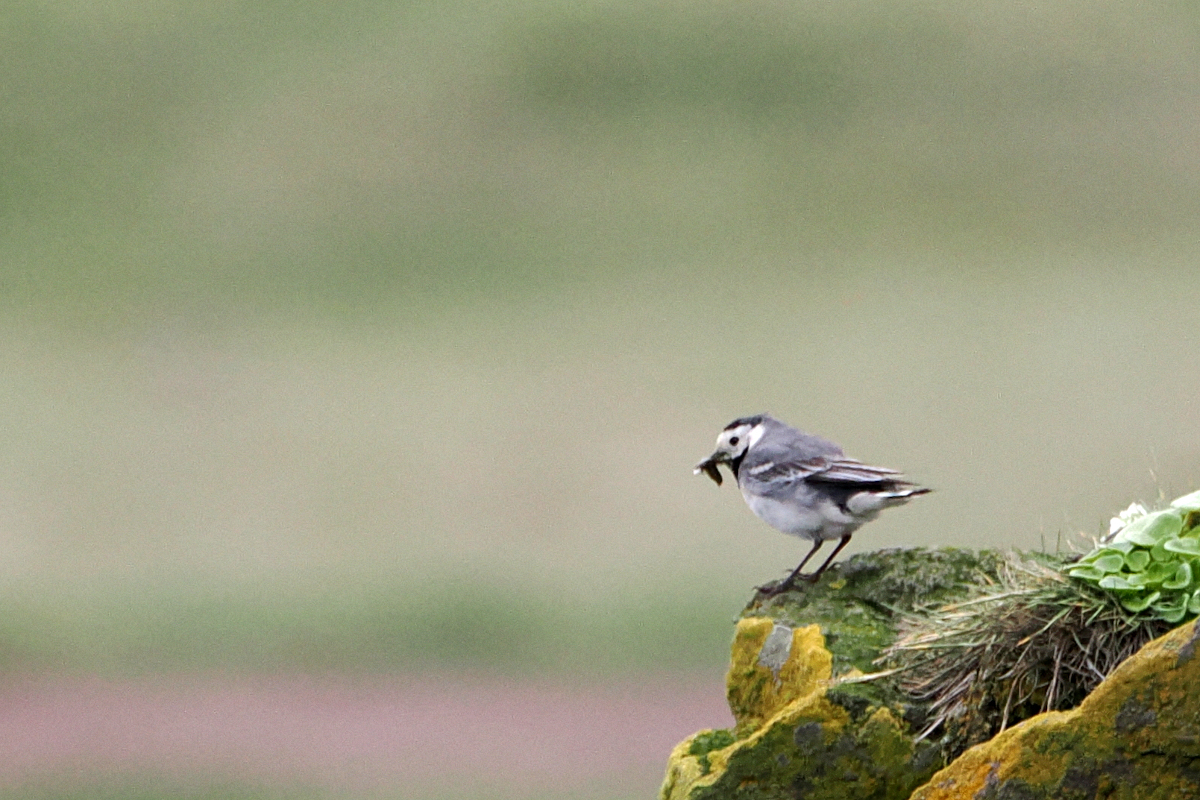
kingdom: Animalia
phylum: Chordata
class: Aves
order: Passeriformes
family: Motacillidae
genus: Motacilla
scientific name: Motacilla alba
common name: White wagtail
